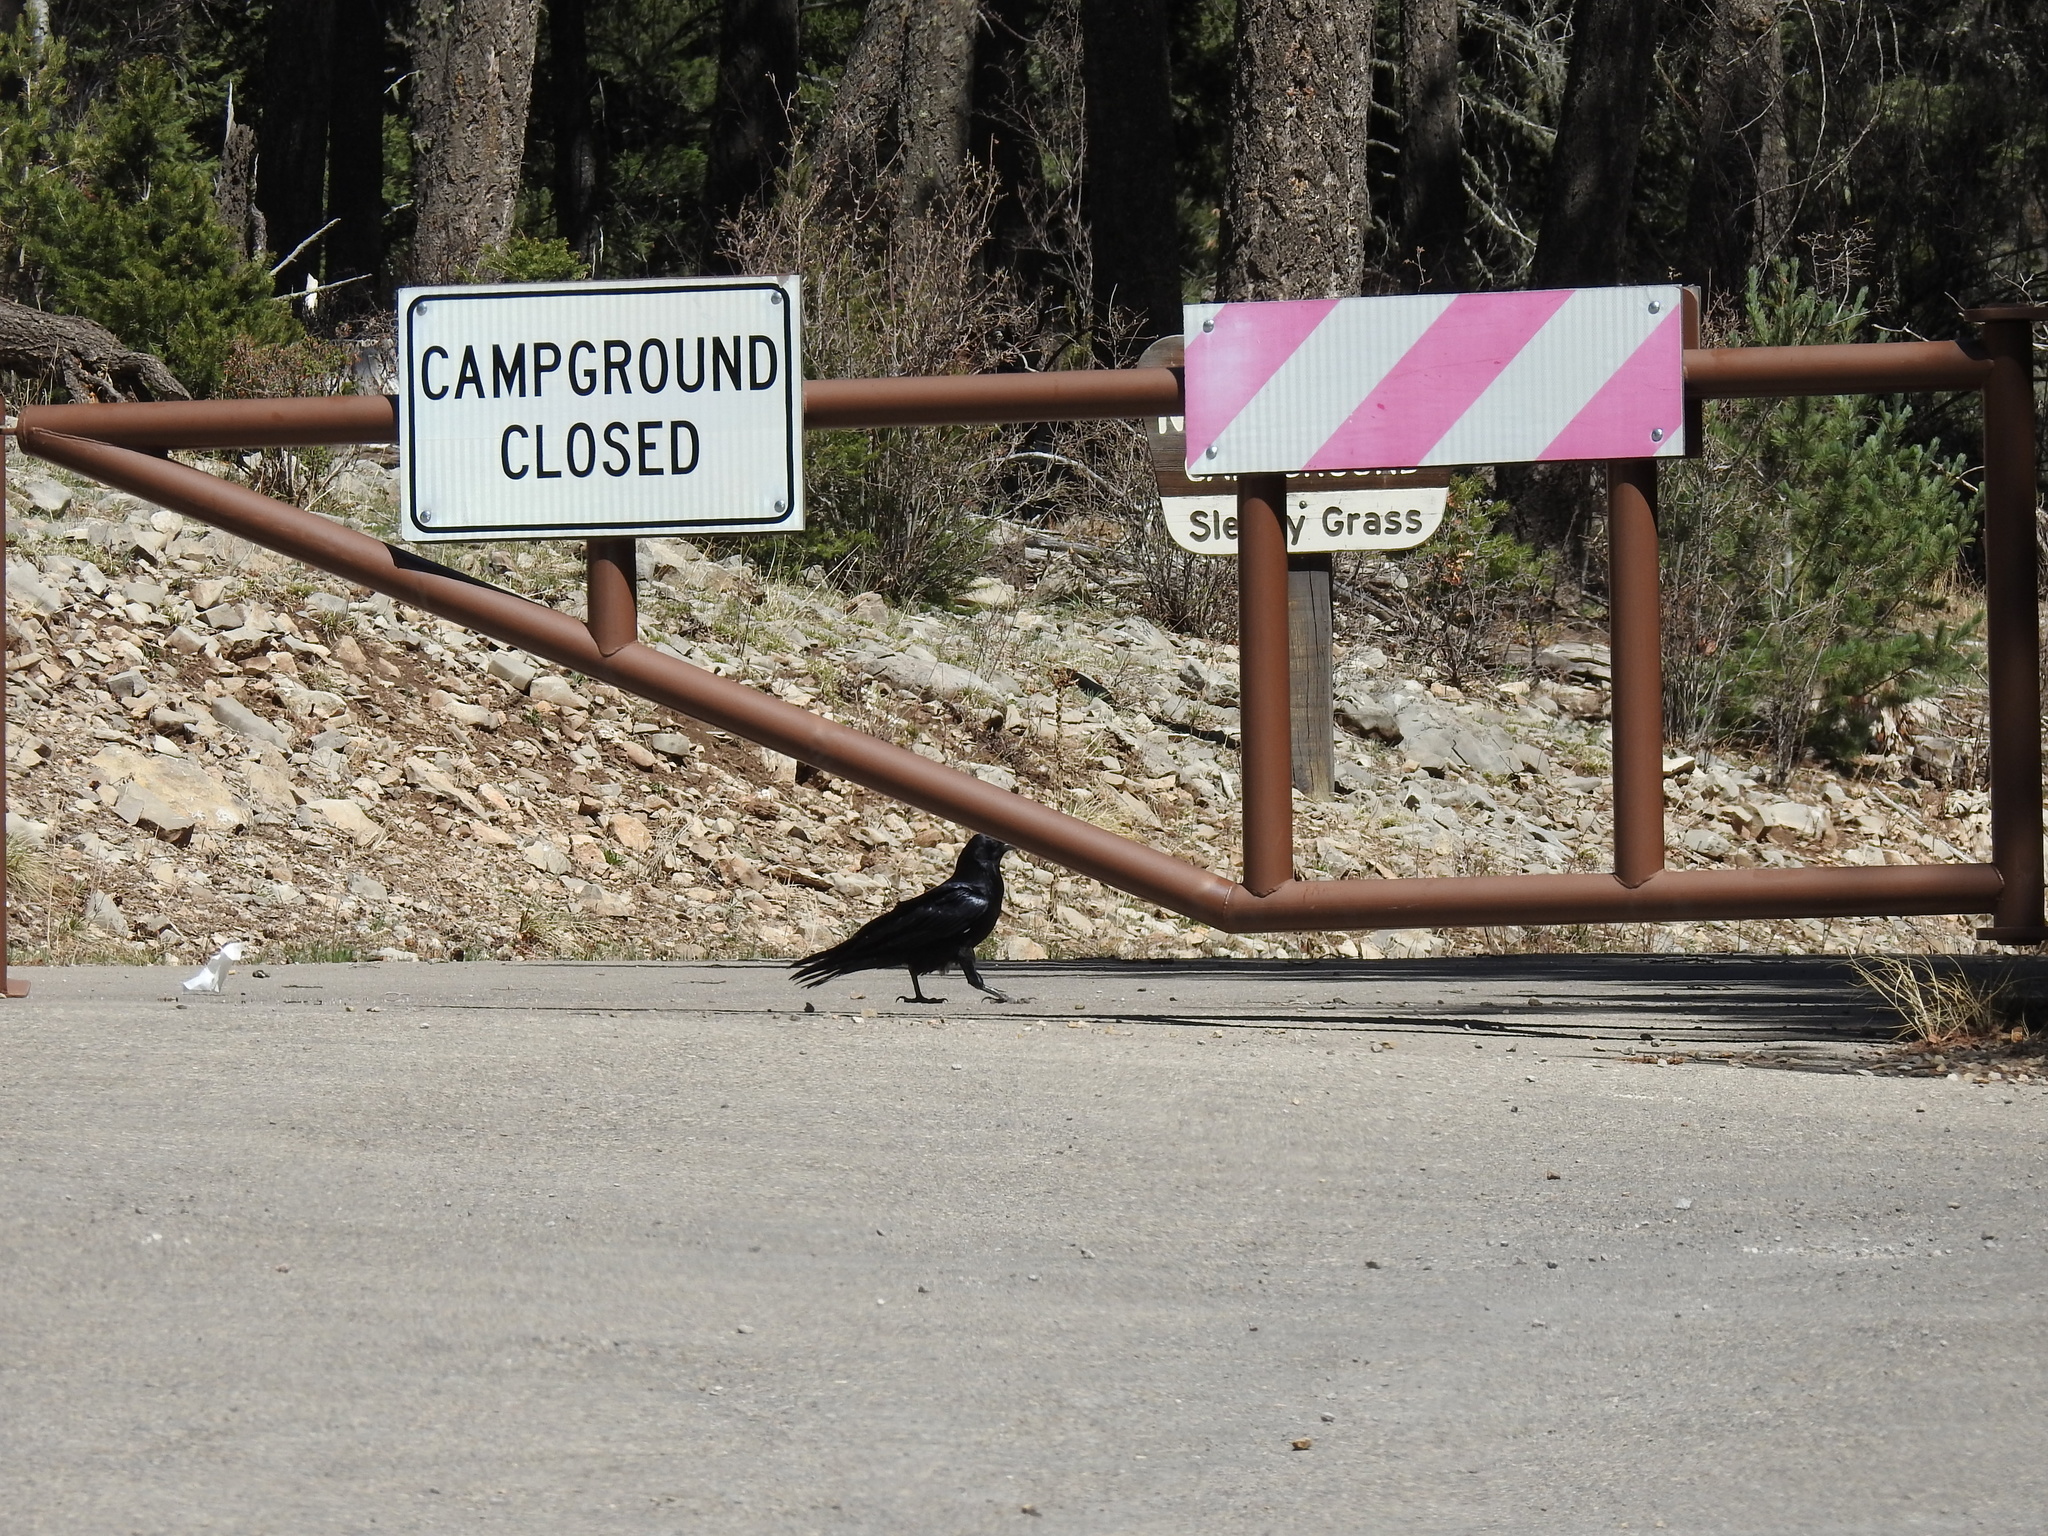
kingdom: Animalia
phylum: Chordata
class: Aves
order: Passeriformes
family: Corvidae
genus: Corvus
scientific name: Corvus corax
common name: Common raven
